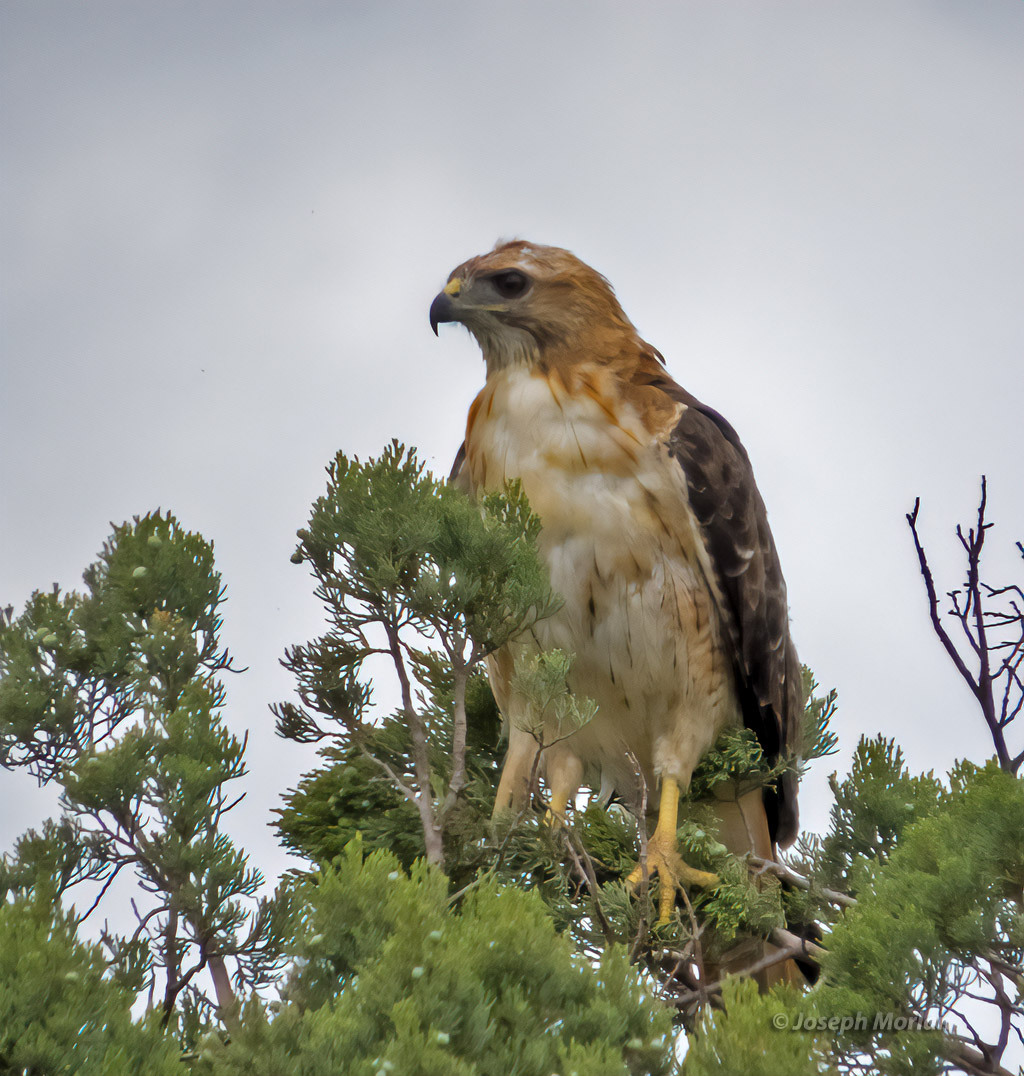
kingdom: Animalia
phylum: Chordata
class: Aves
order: Accipitriformes
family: Accipitridae
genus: Buteo
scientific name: Buteo jamaicensis
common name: Red-tailed hawk
